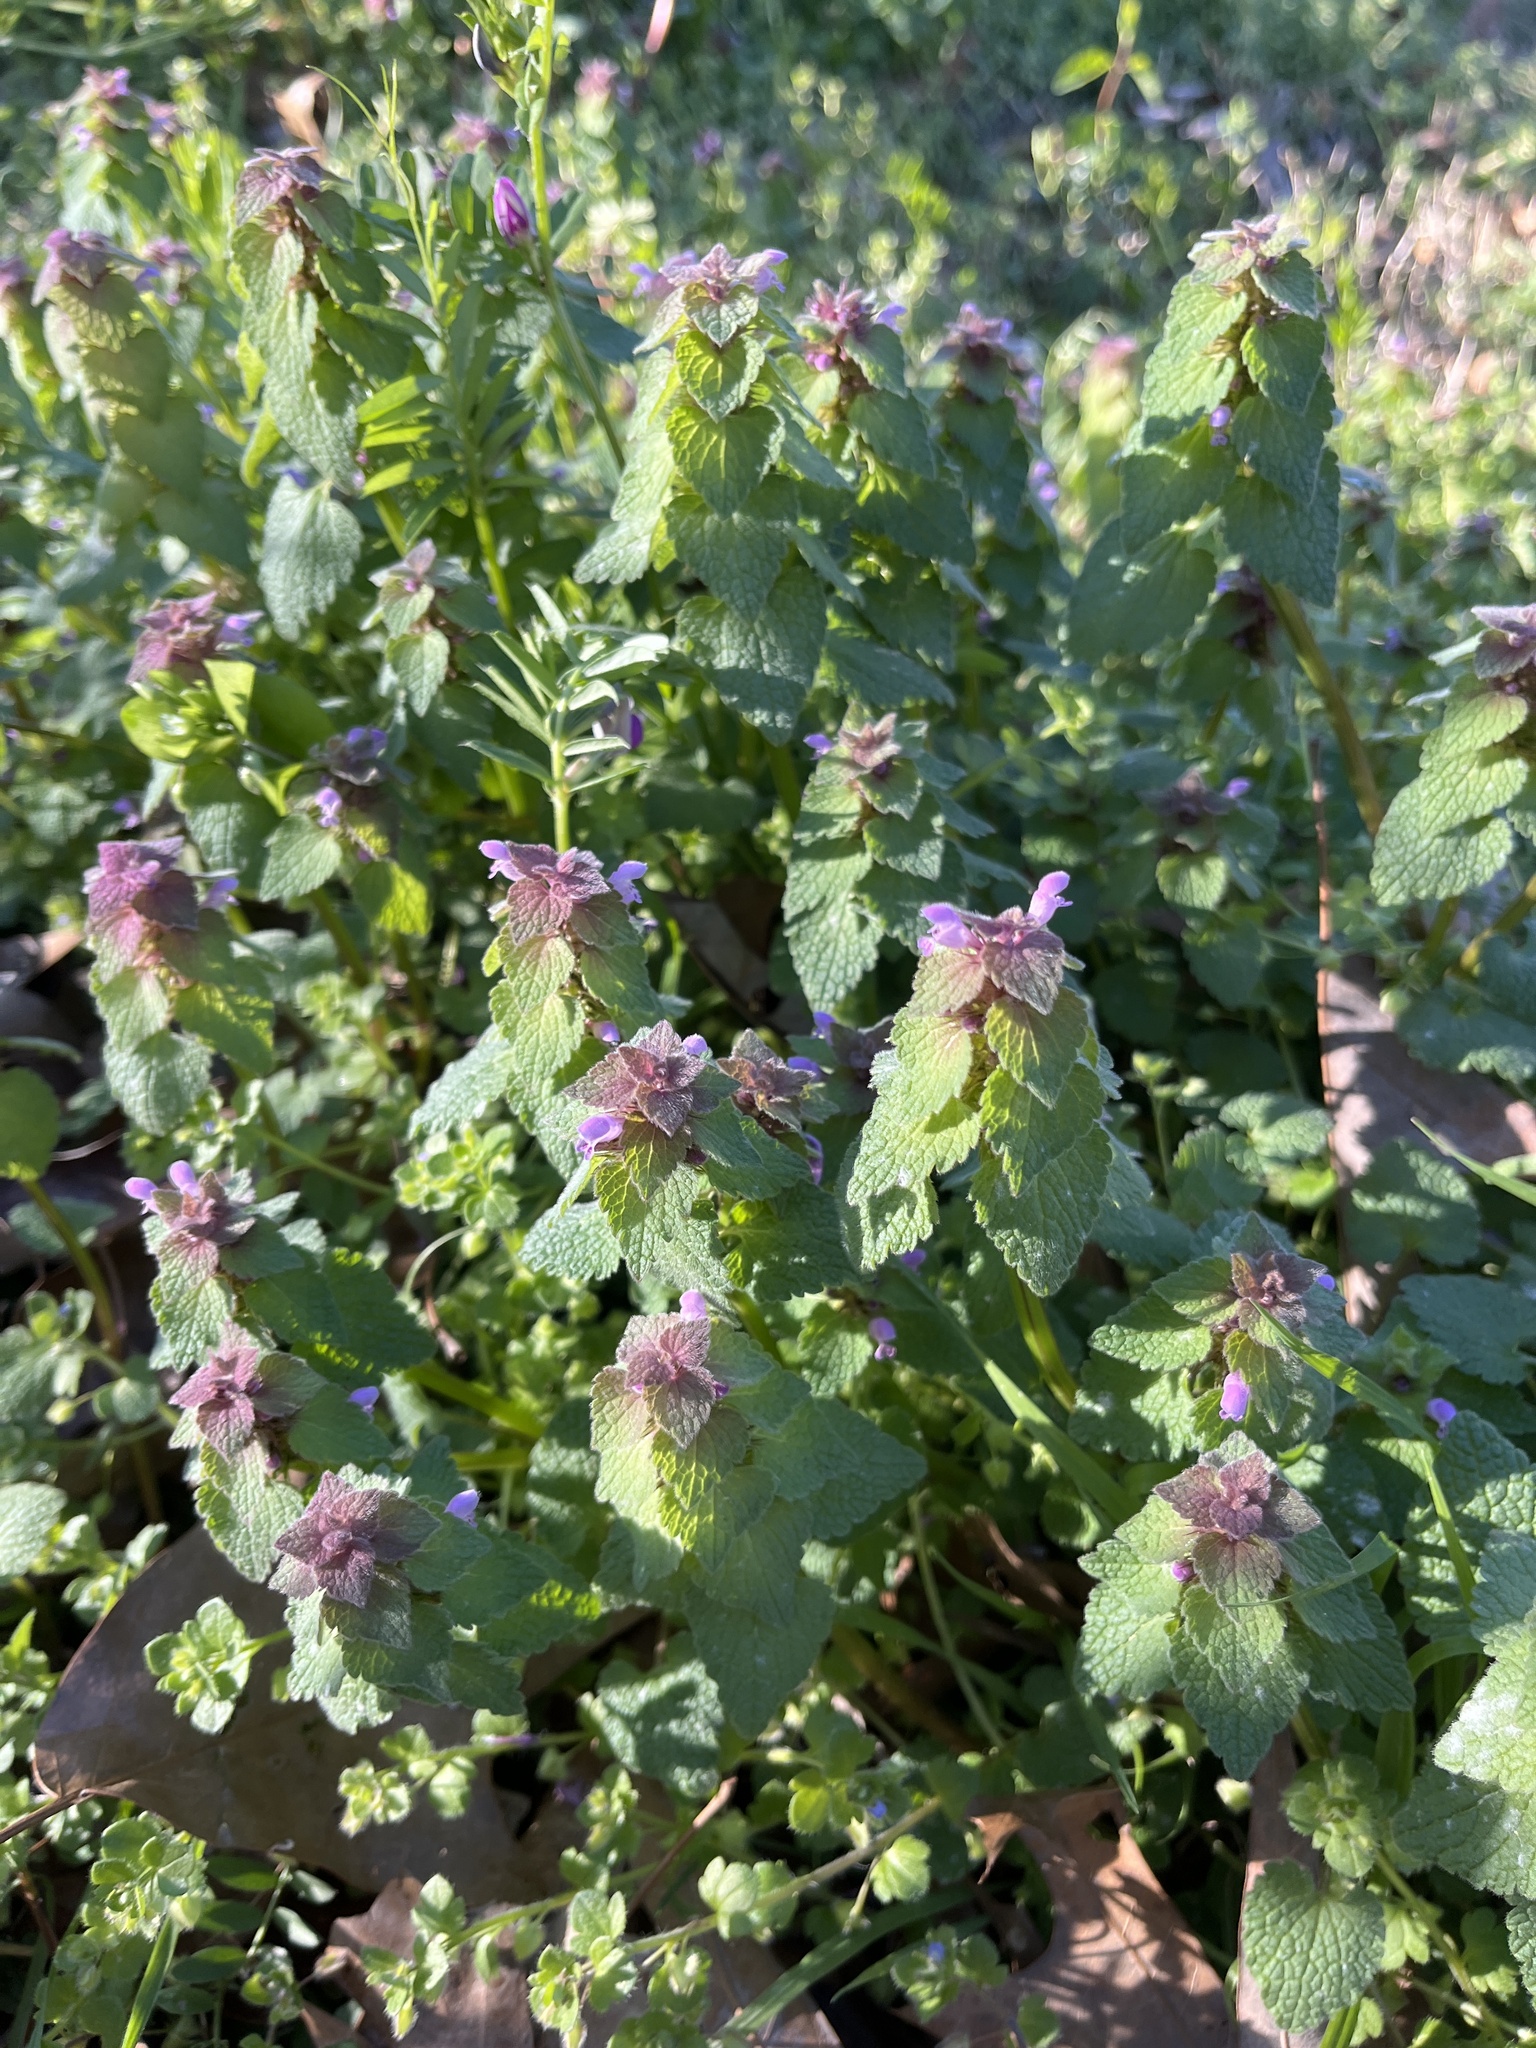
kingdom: Plantae
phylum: Tracheophyta
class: Magnoliopsida
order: Lamiales
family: Lamiaceae
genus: Lamium
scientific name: Lamium purpureum
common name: Red dead-nettle
